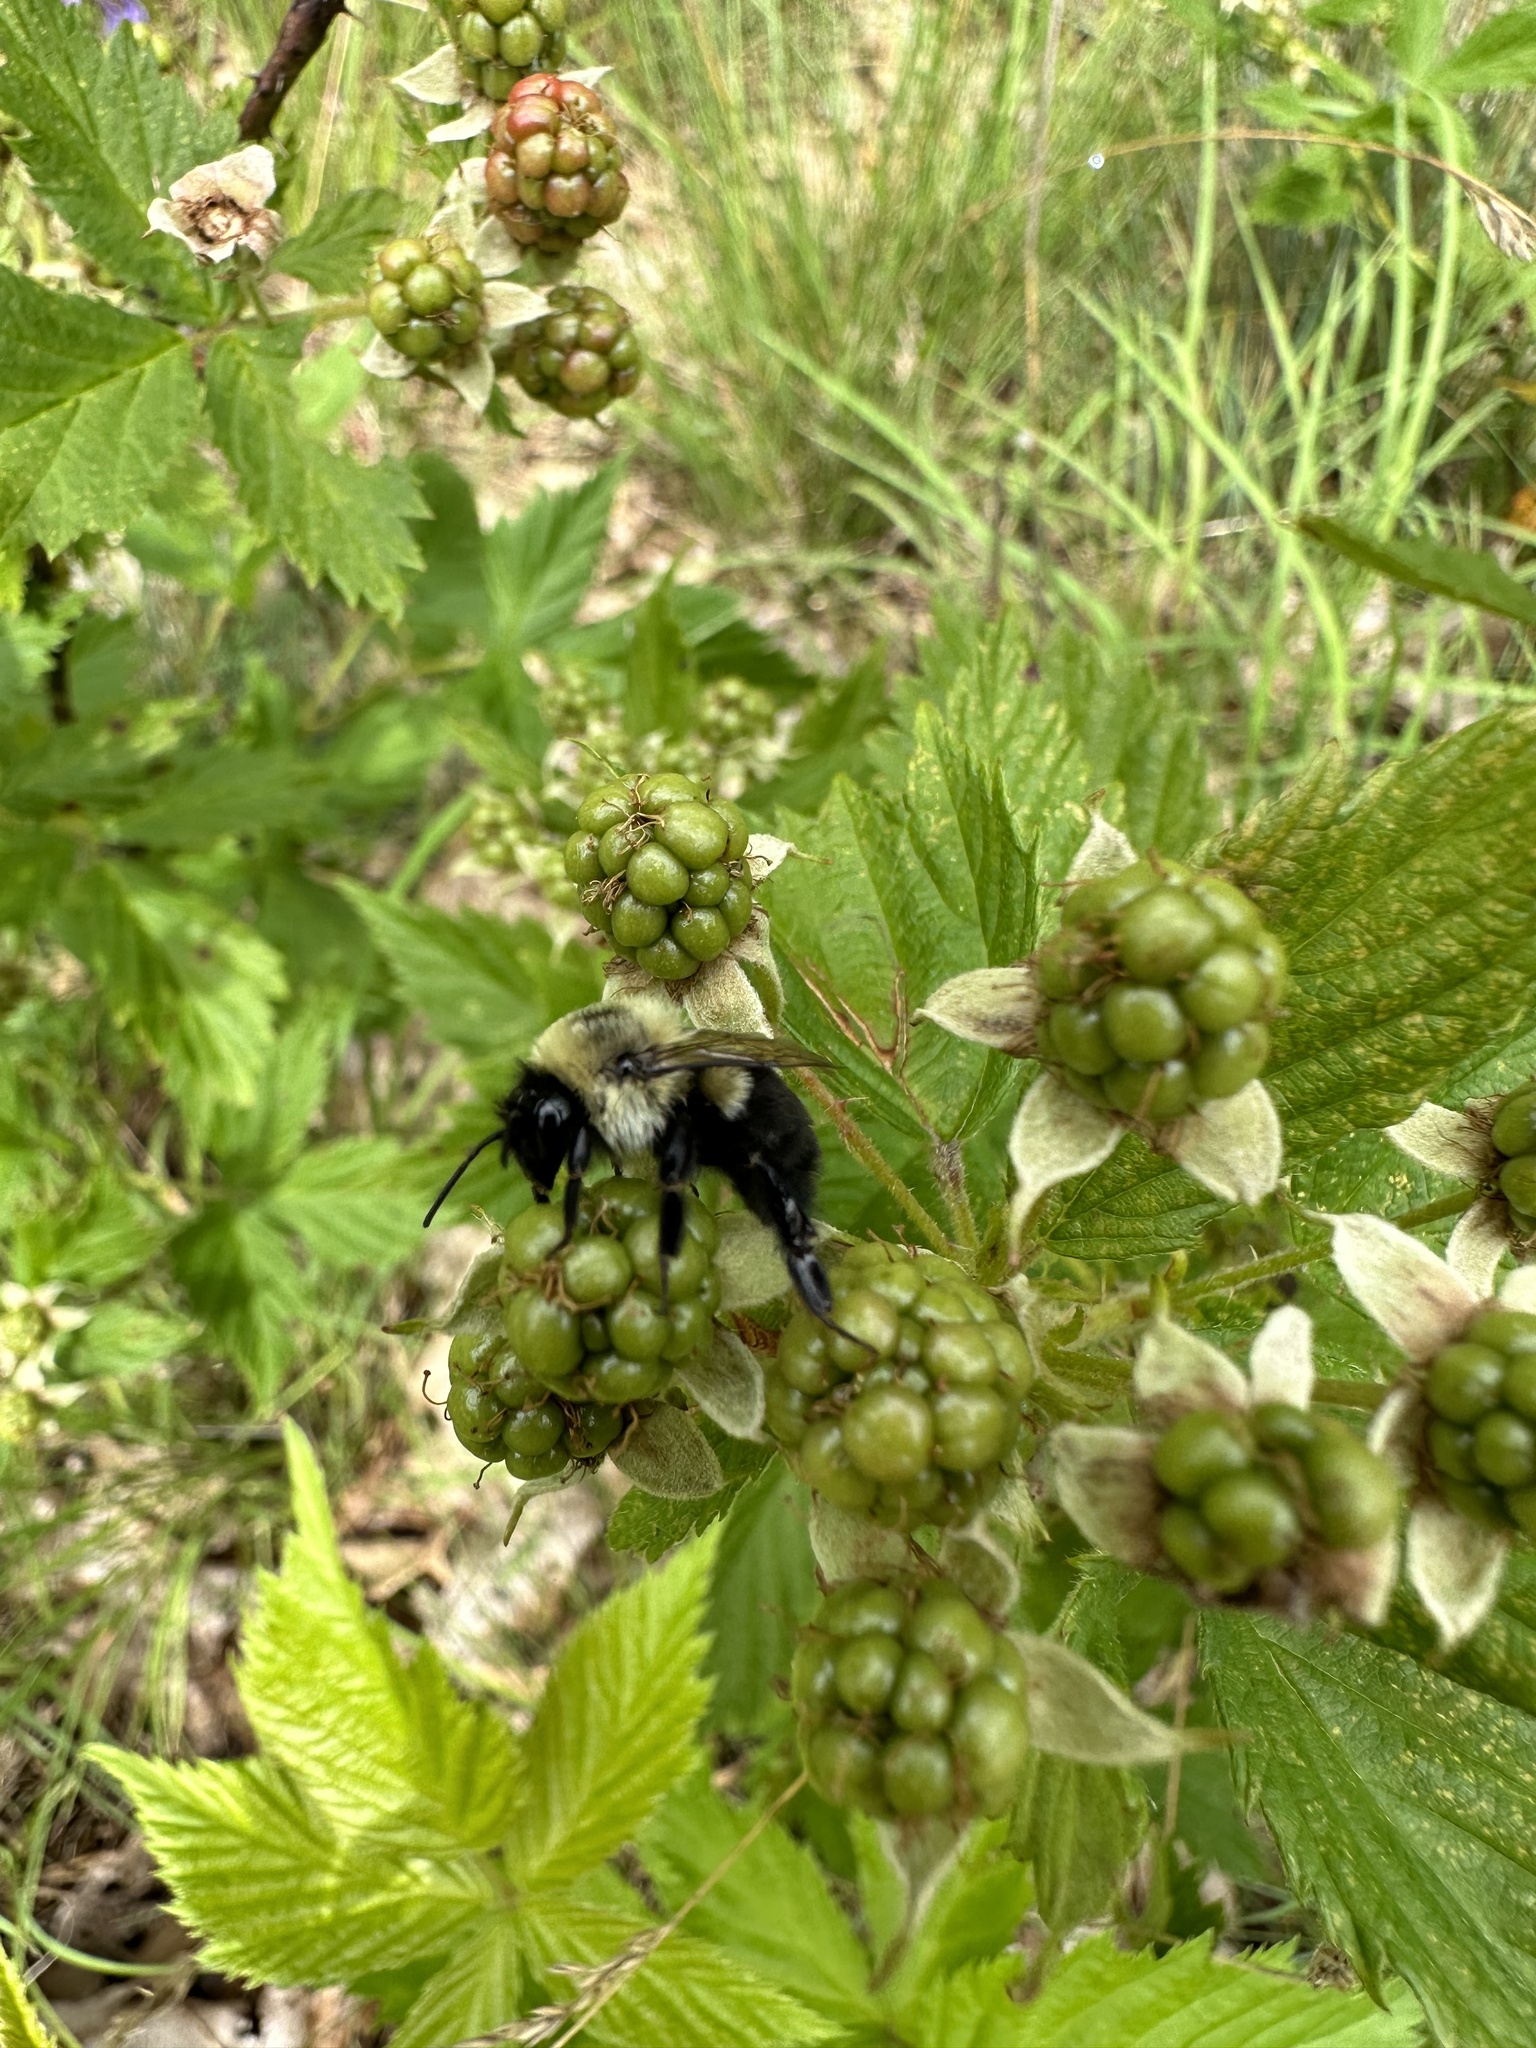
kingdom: Animalia
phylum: Arthropoda
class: Insecta
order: Hymenoptera
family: Apidae
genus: Bombus
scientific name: Bombus impatiens
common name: Common eastern bumble bee
